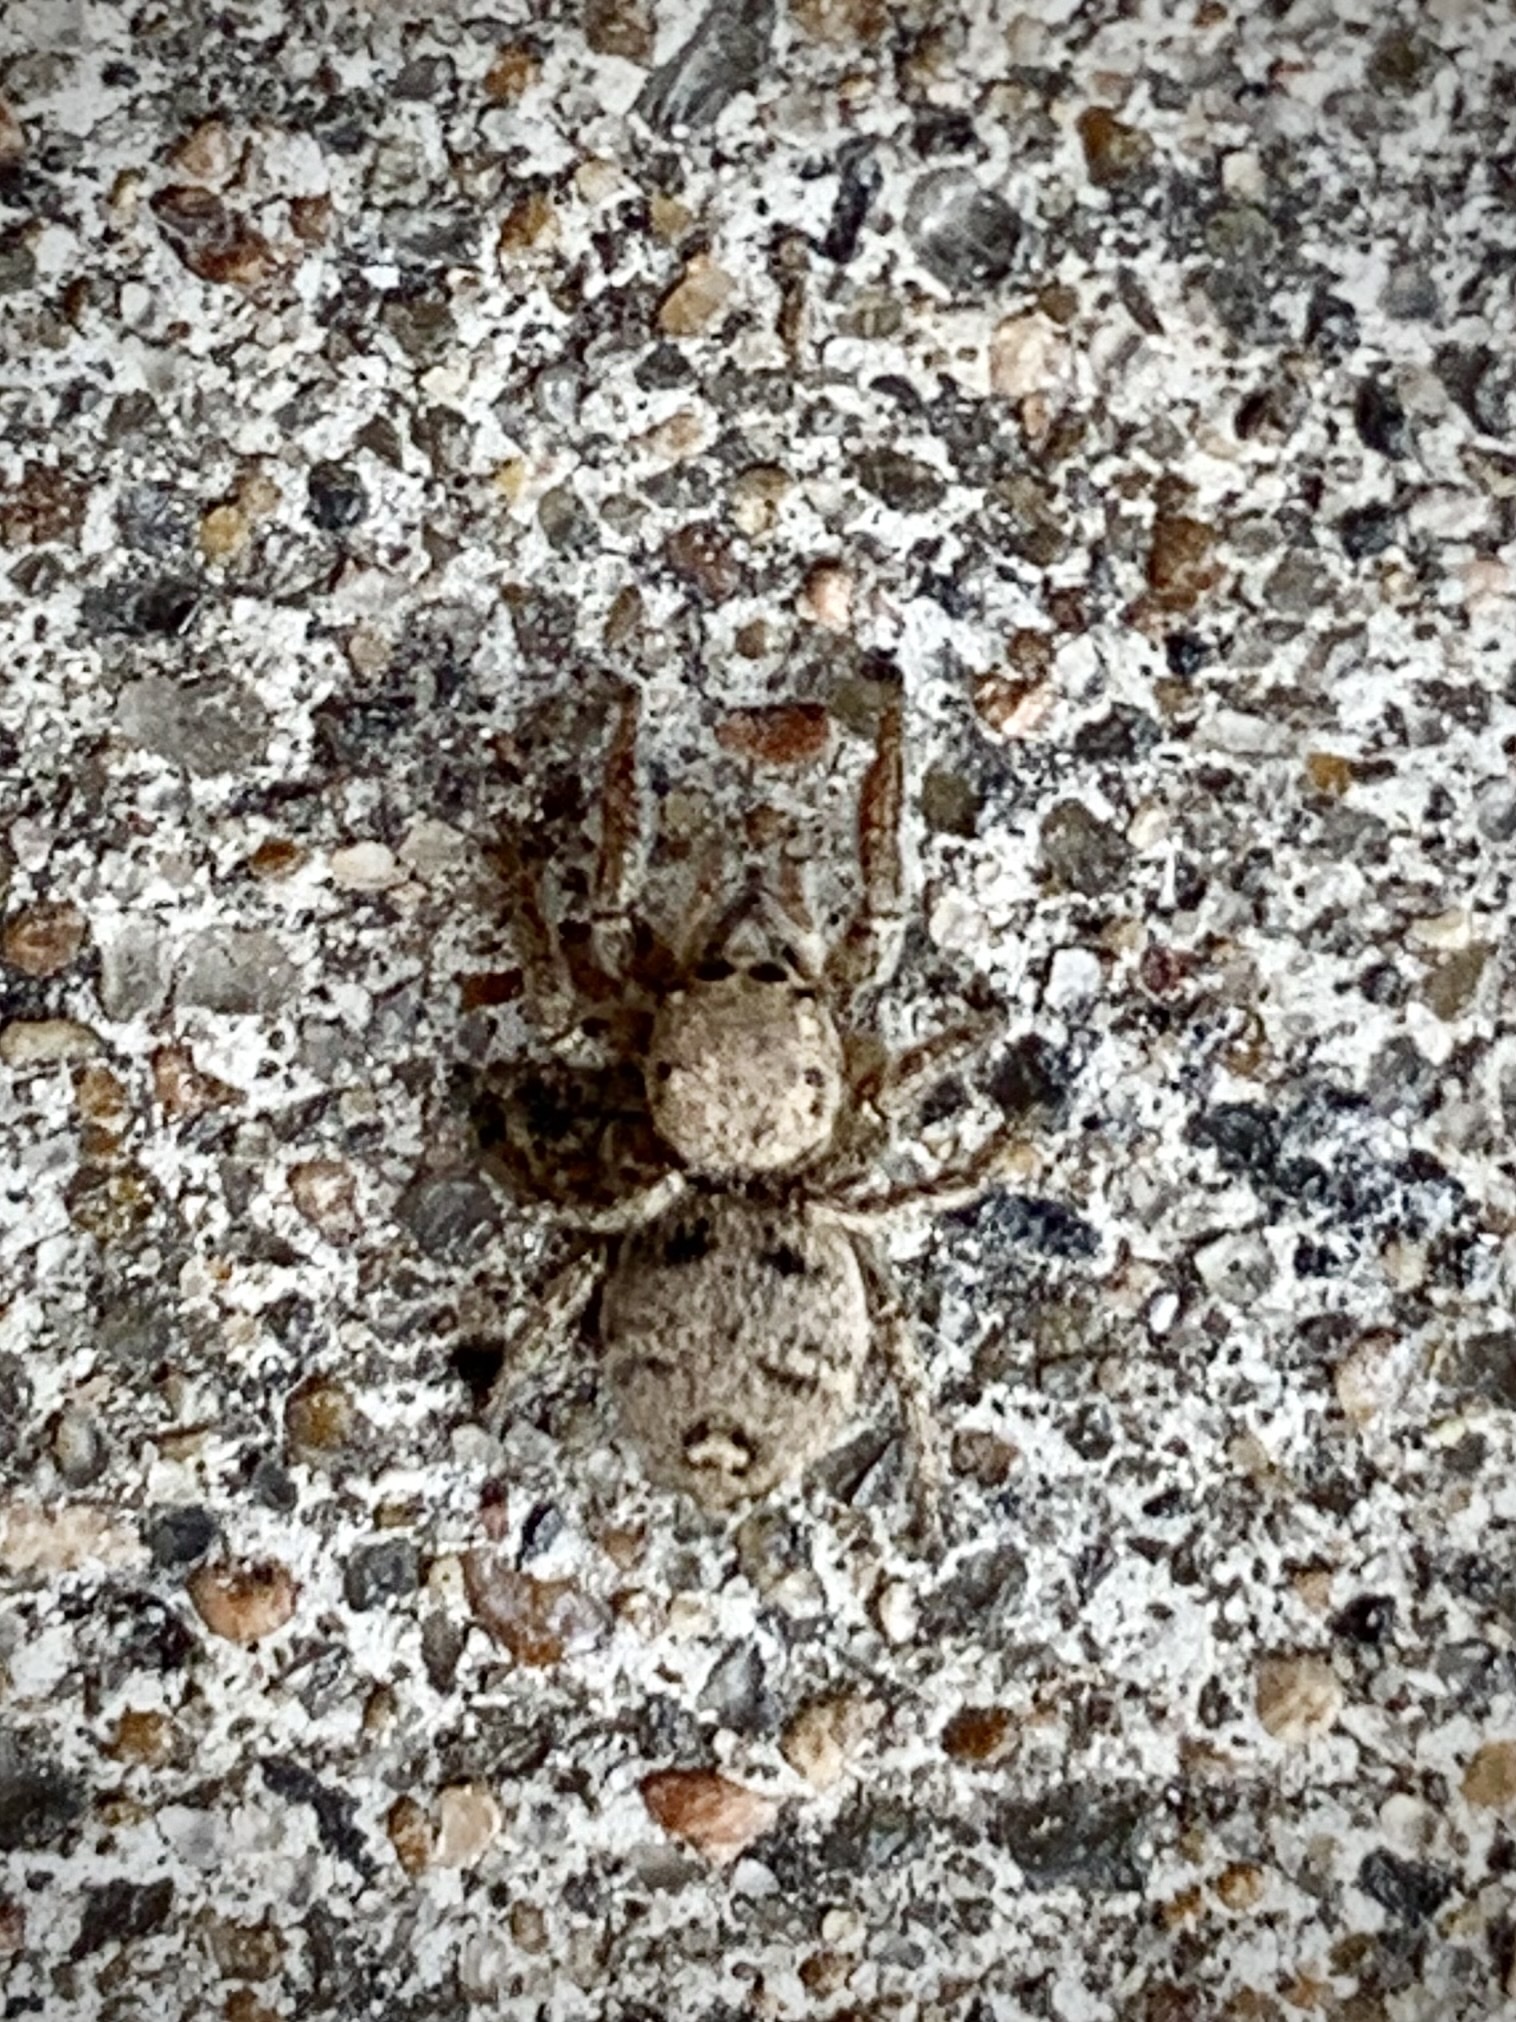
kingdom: Animalia
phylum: Arthropoda
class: Arachnida
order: Araneae
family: Salticidae
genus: Habronattus
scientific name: Habronattus coecatus
